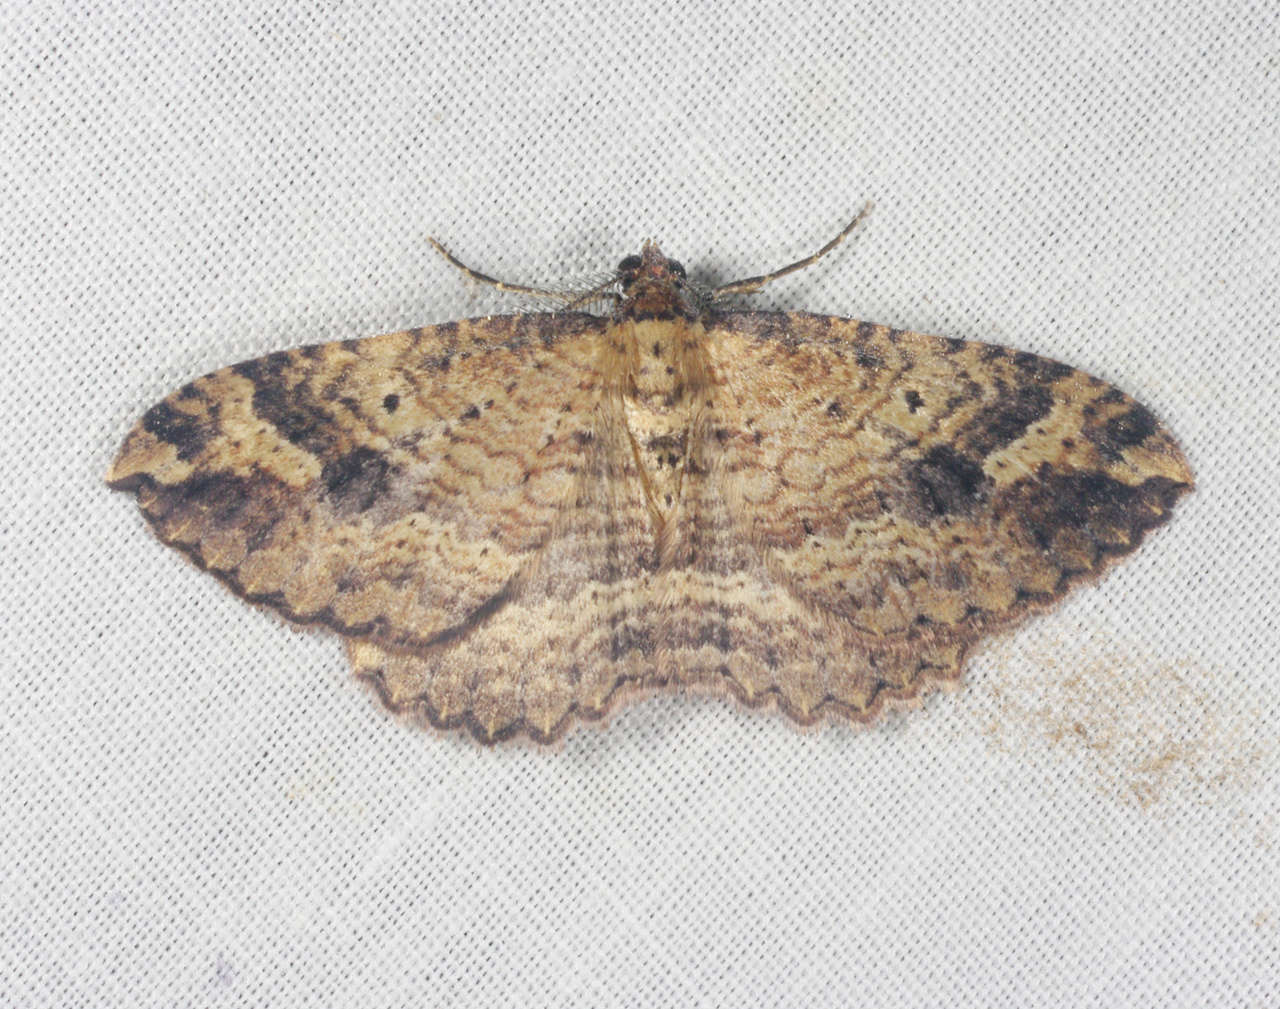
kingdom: Animalia
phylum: Arthropoda
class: Insecta
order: Lepidoptera
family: Geometridae
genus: Acodia
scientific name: Acodia pauper
